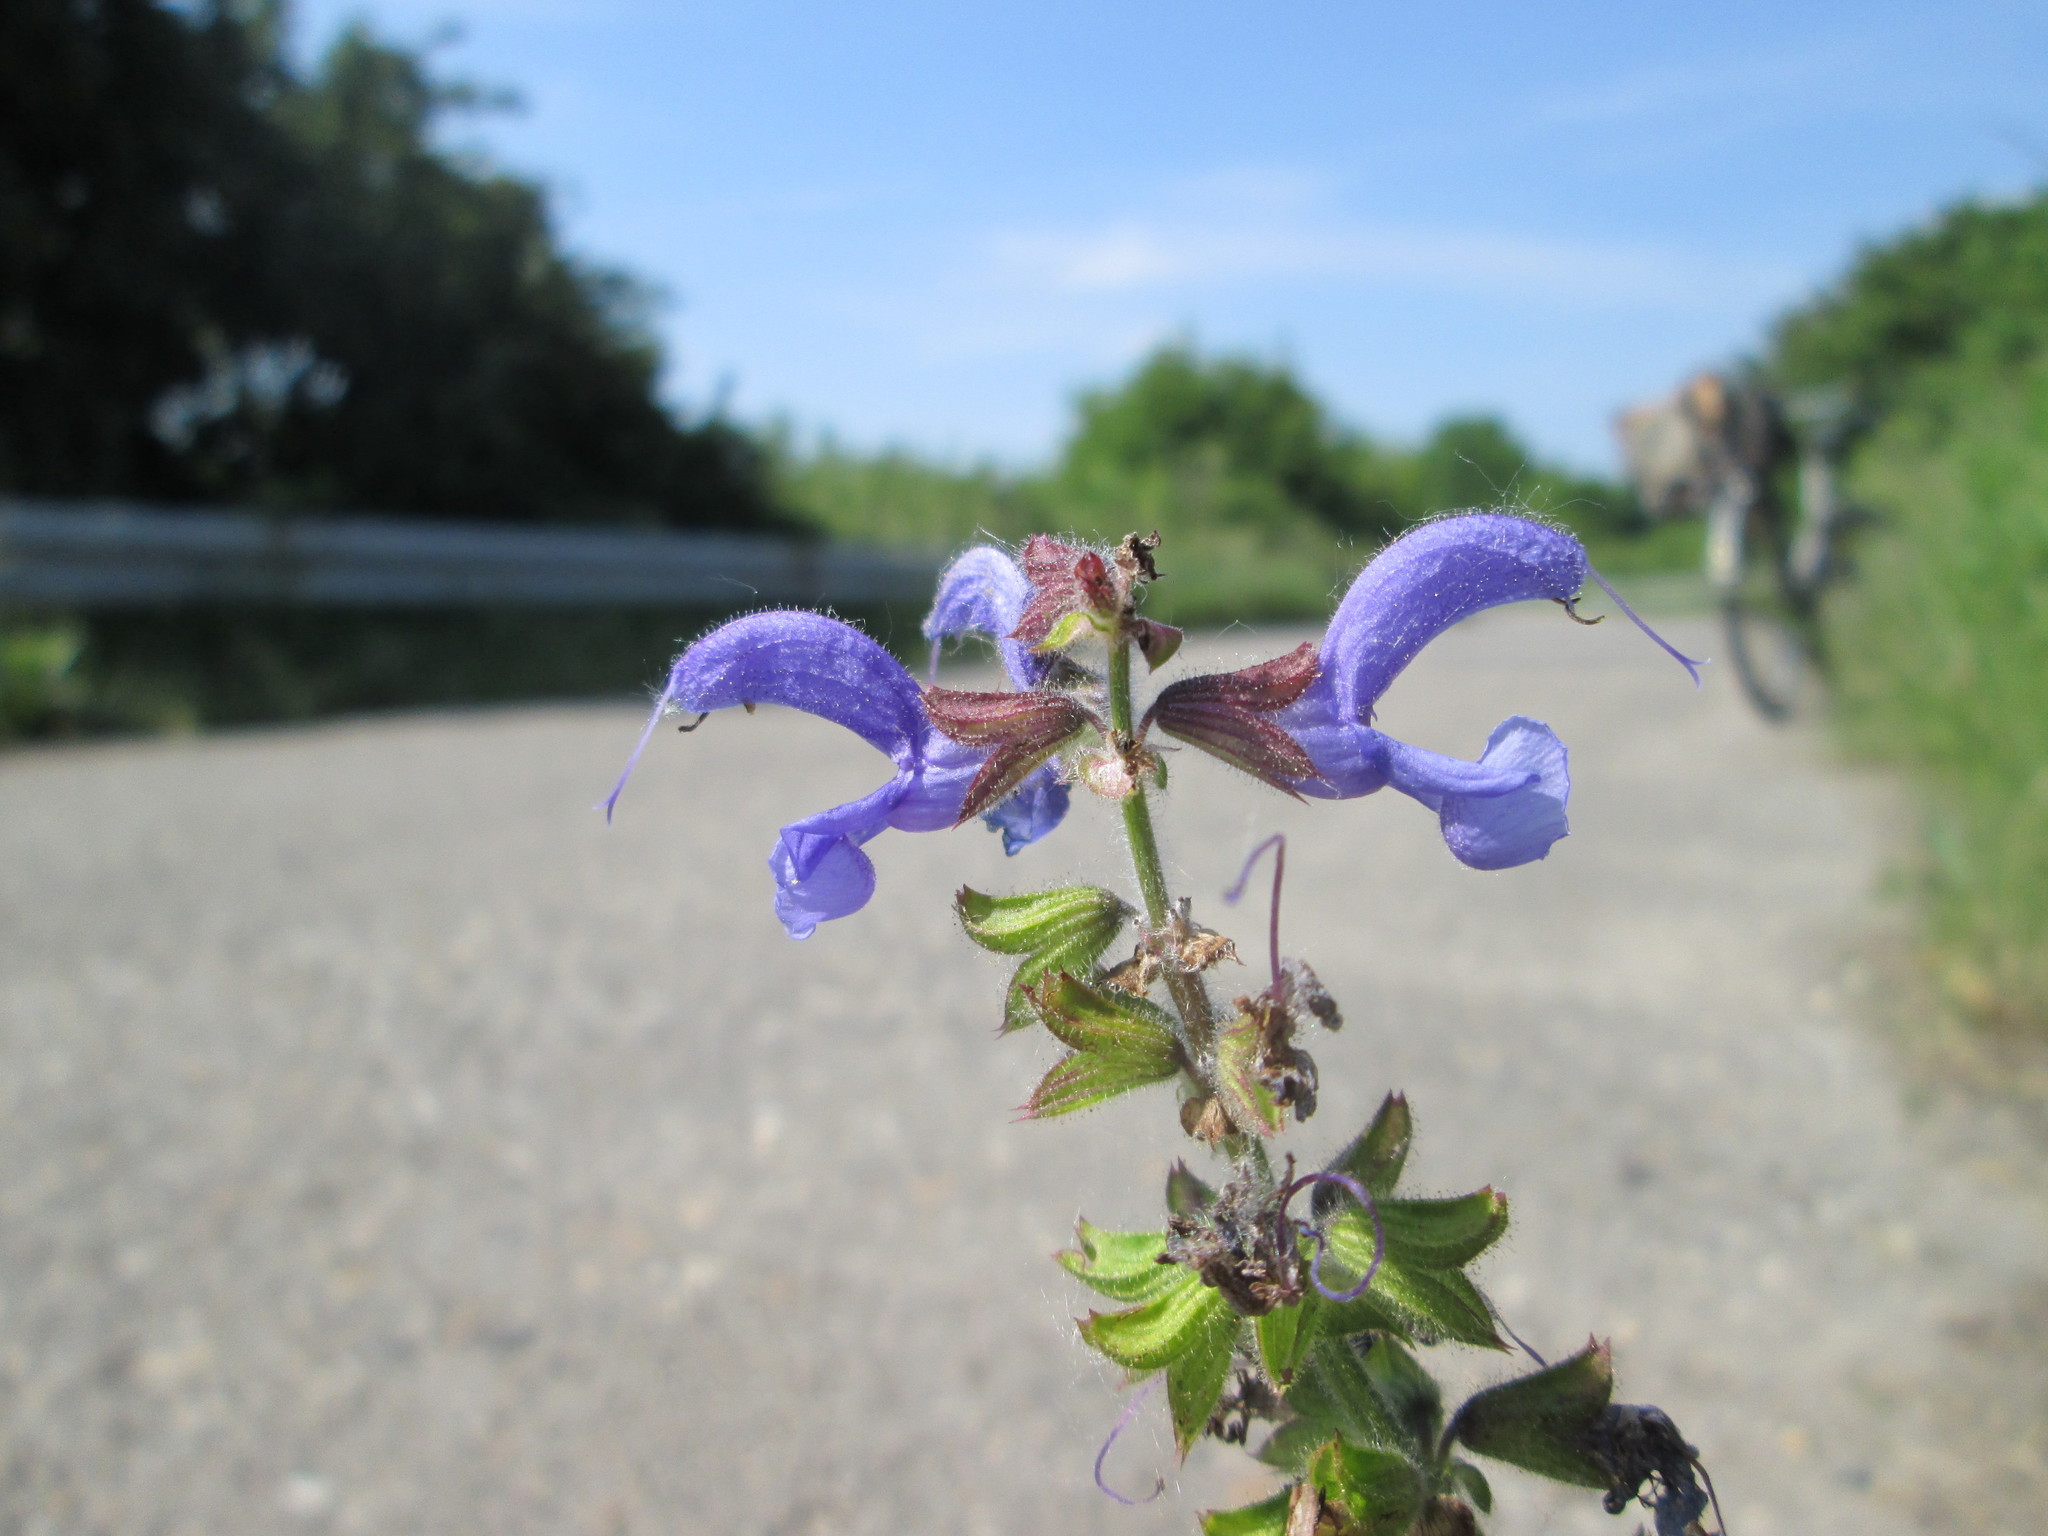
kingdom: Plantae
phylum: Tracheophyta
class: Magnoliopsida
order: Lamiales
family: Lamiaceae
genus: Salvia
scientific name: Salvia pratensis
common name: Meadow sage
